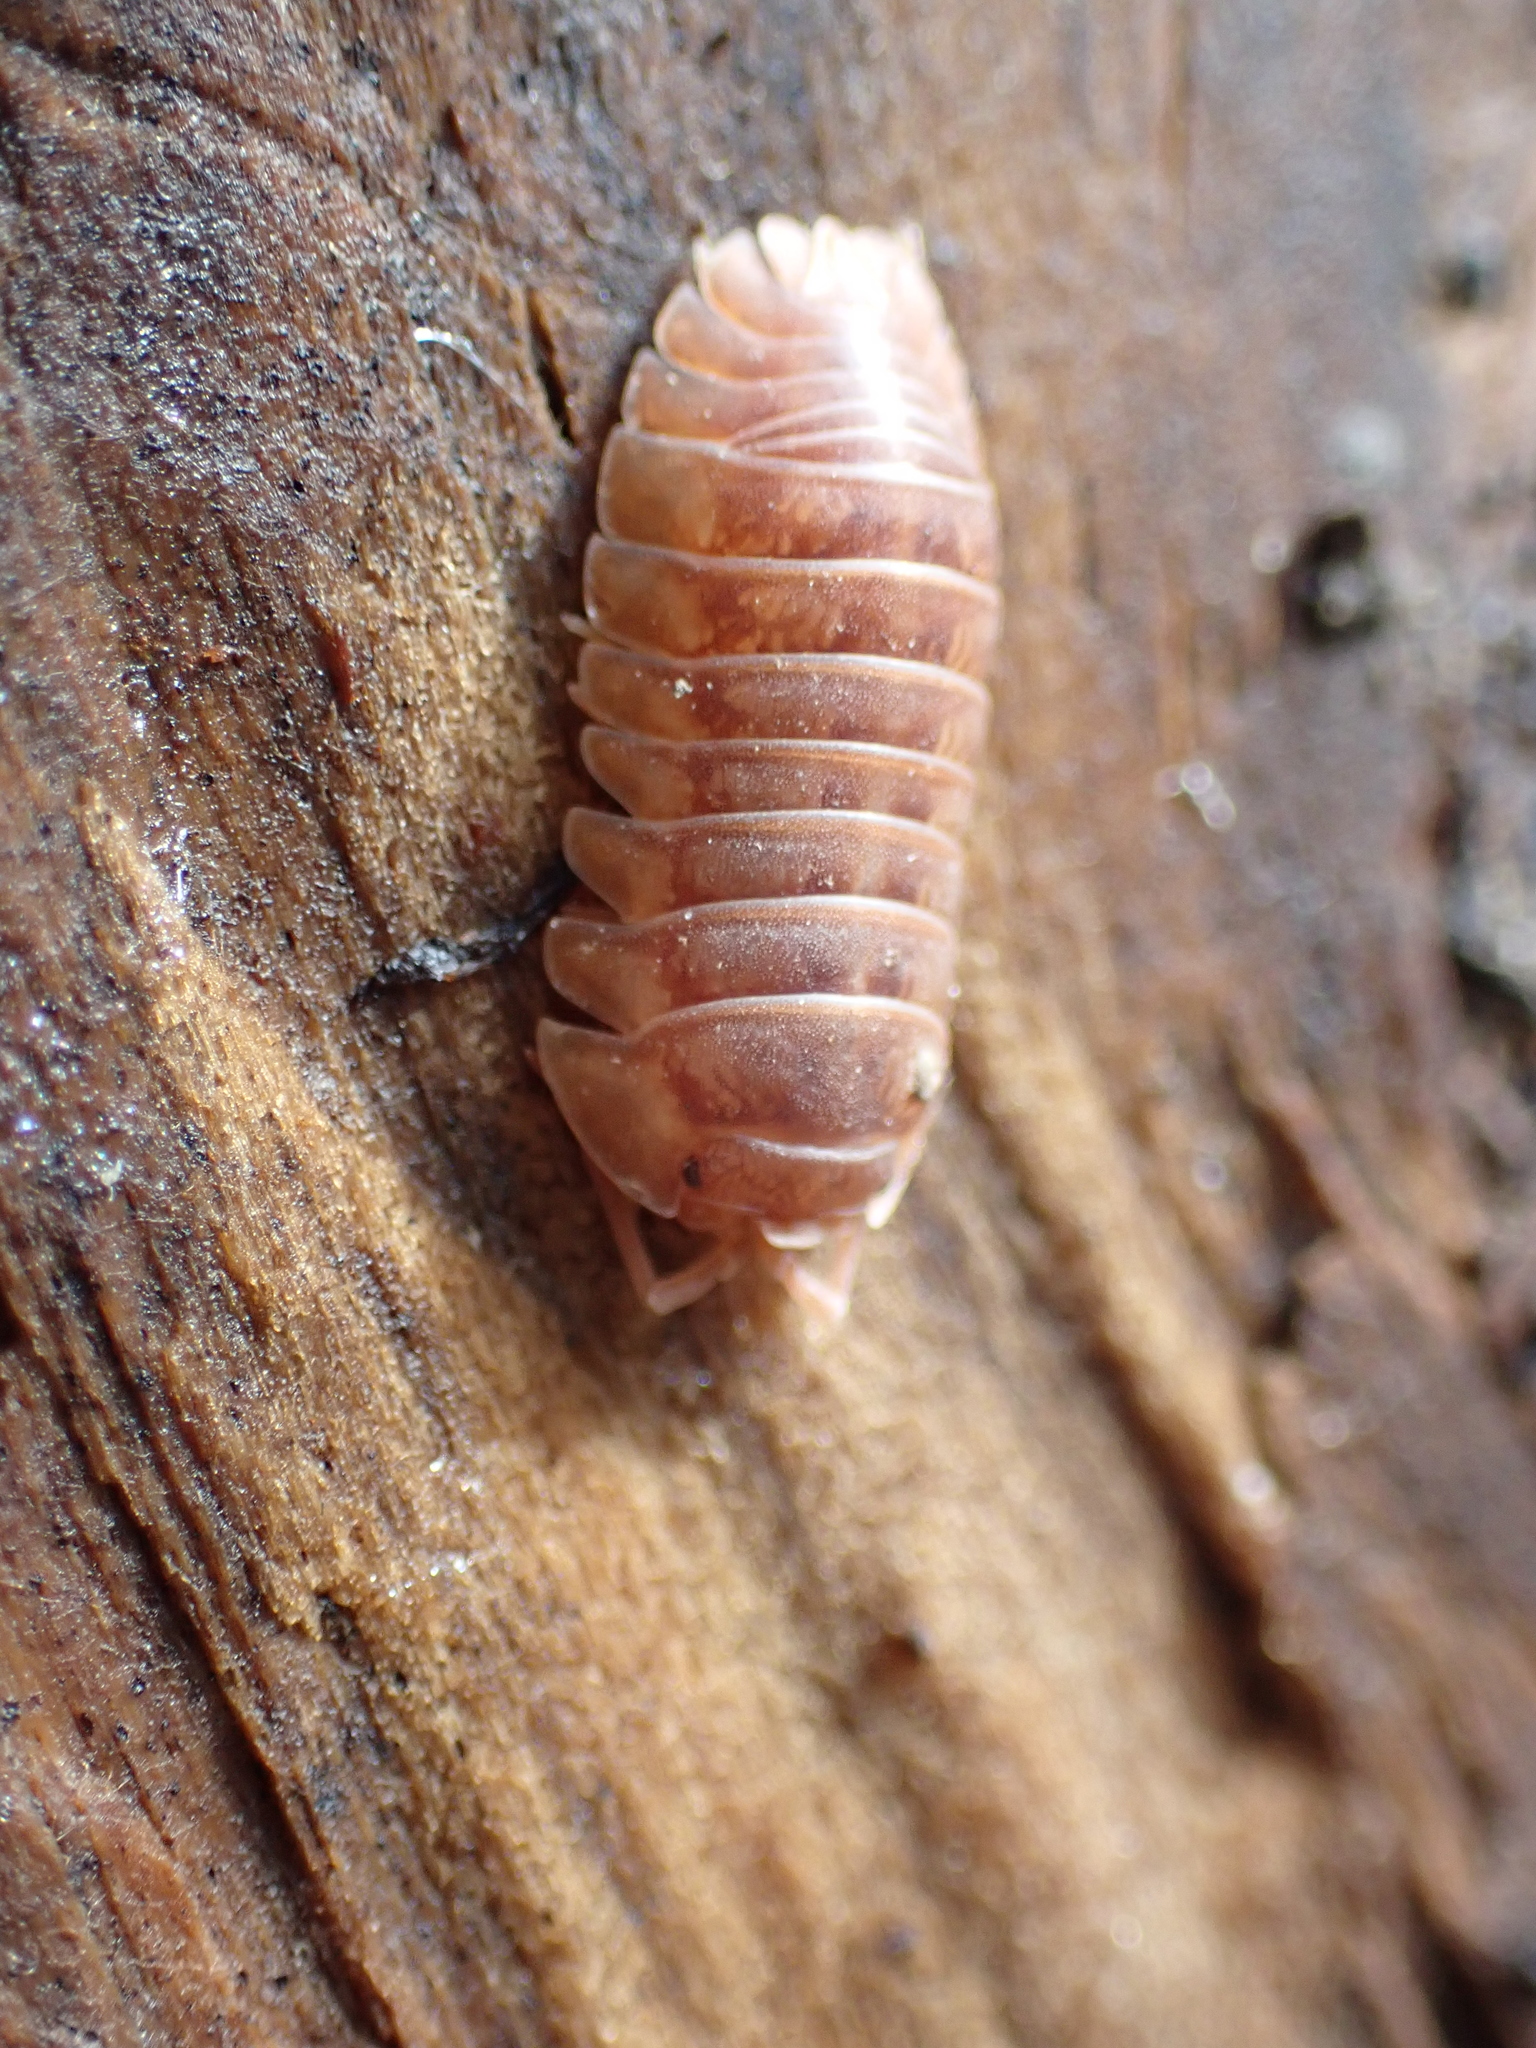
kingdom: Animalia
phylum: Arthropoda
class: Malacostraca
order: Isopoda
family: Armadillidiidae
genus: Armadillidium
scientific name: Armadillidium nasatum
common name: Isopod
